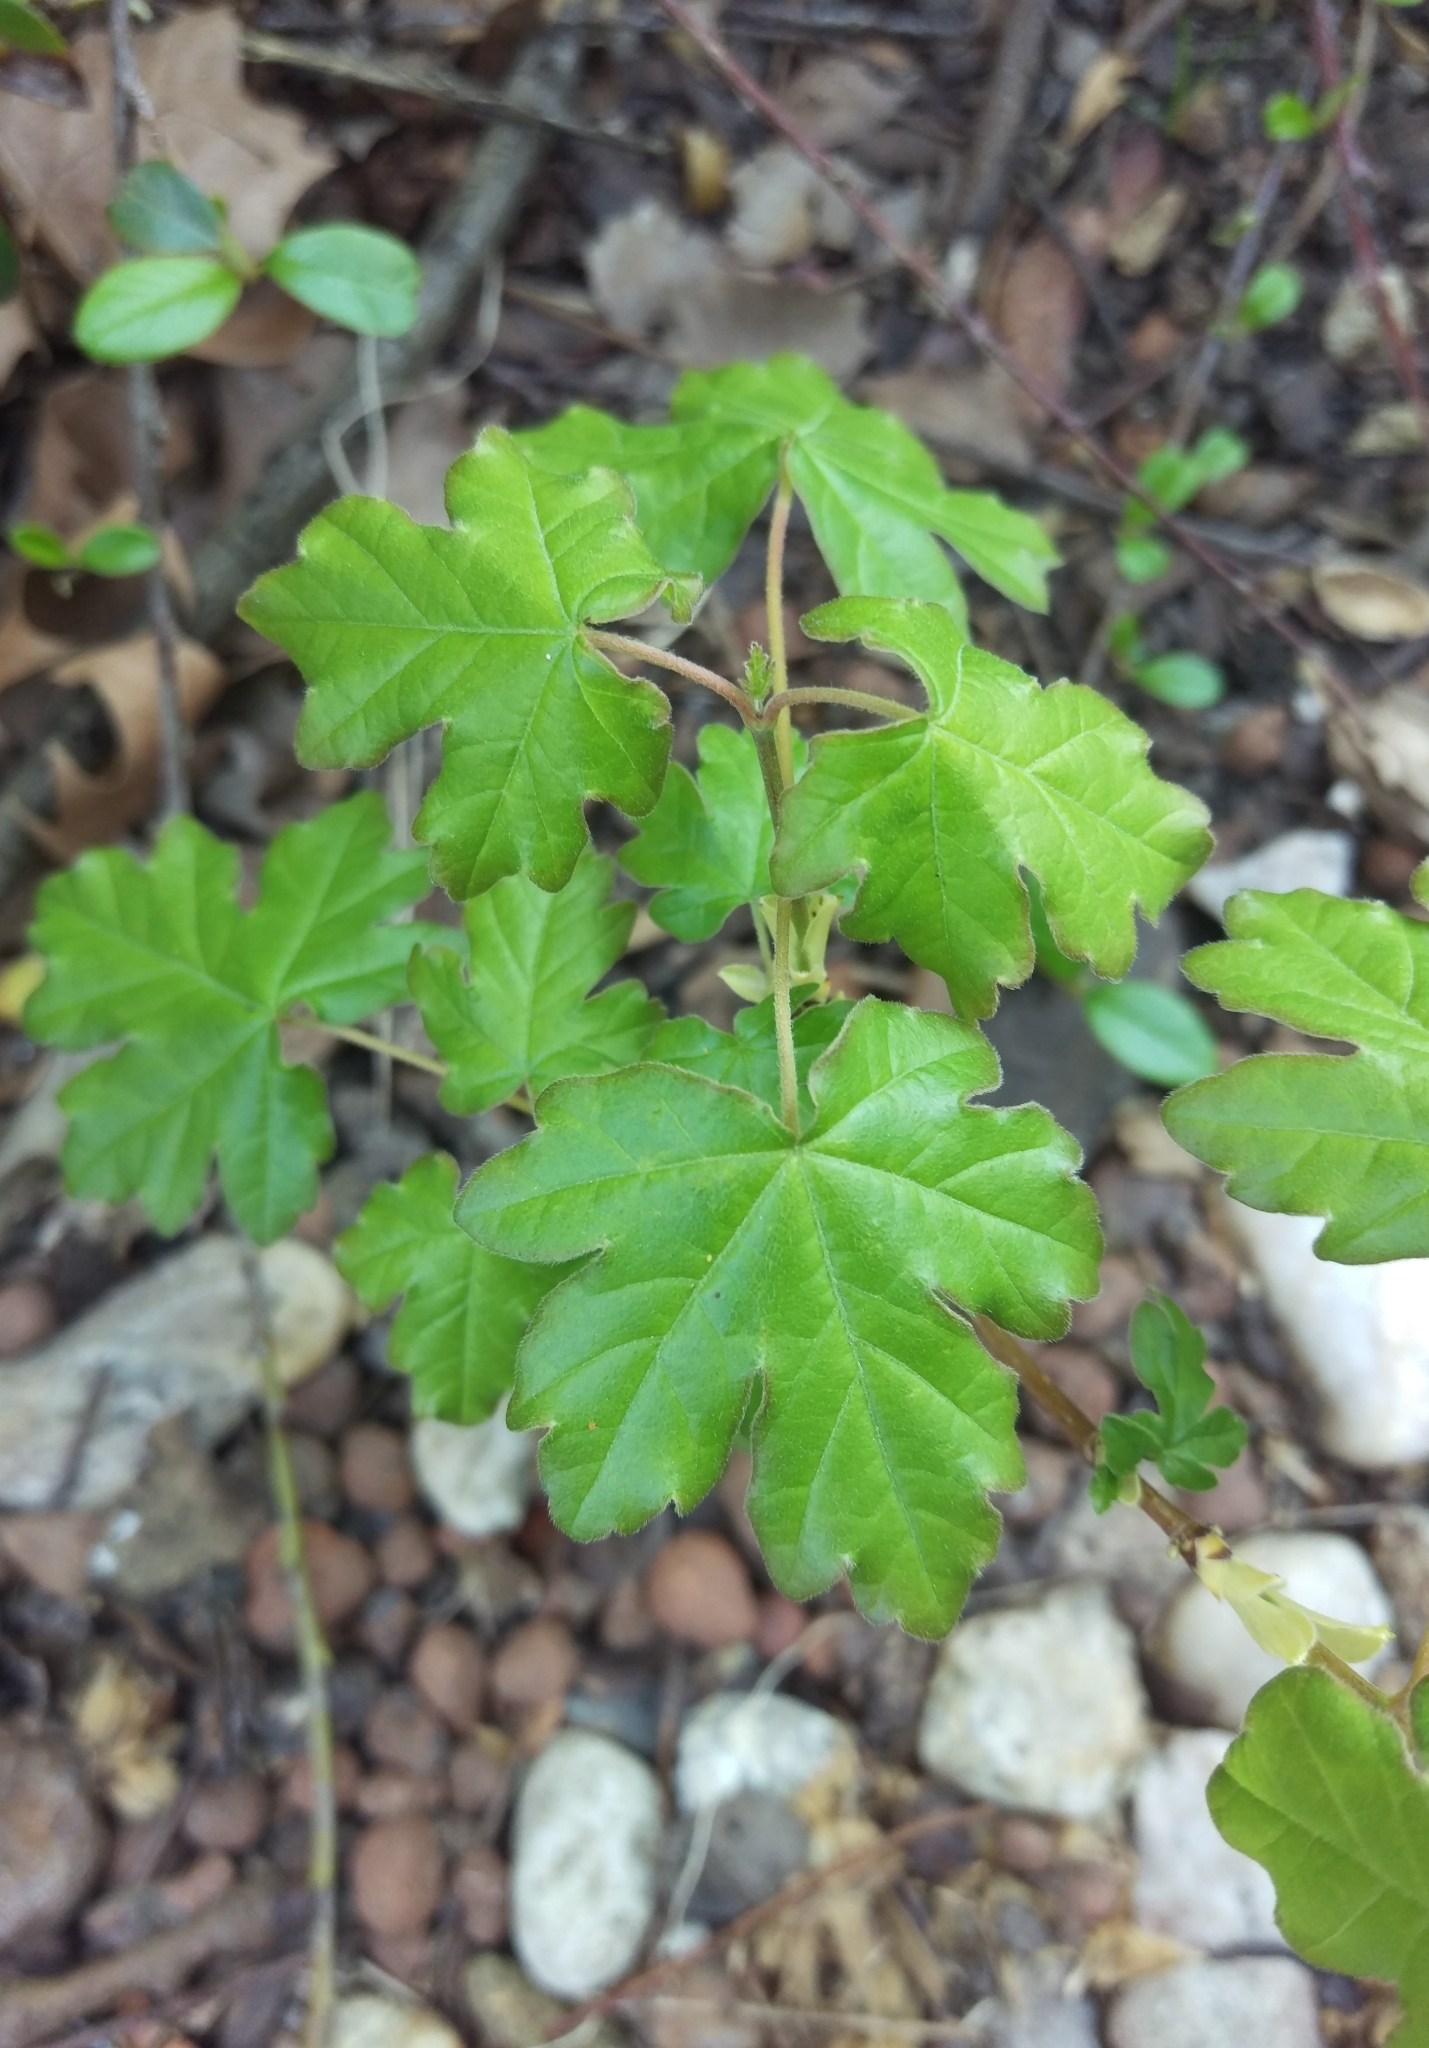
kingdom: Plantae
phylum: Tracheophyta
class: Magnoliopsida
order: Sapindales
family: Sapindaceae
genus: Acer
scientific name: Acer campestre
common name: Field maple
